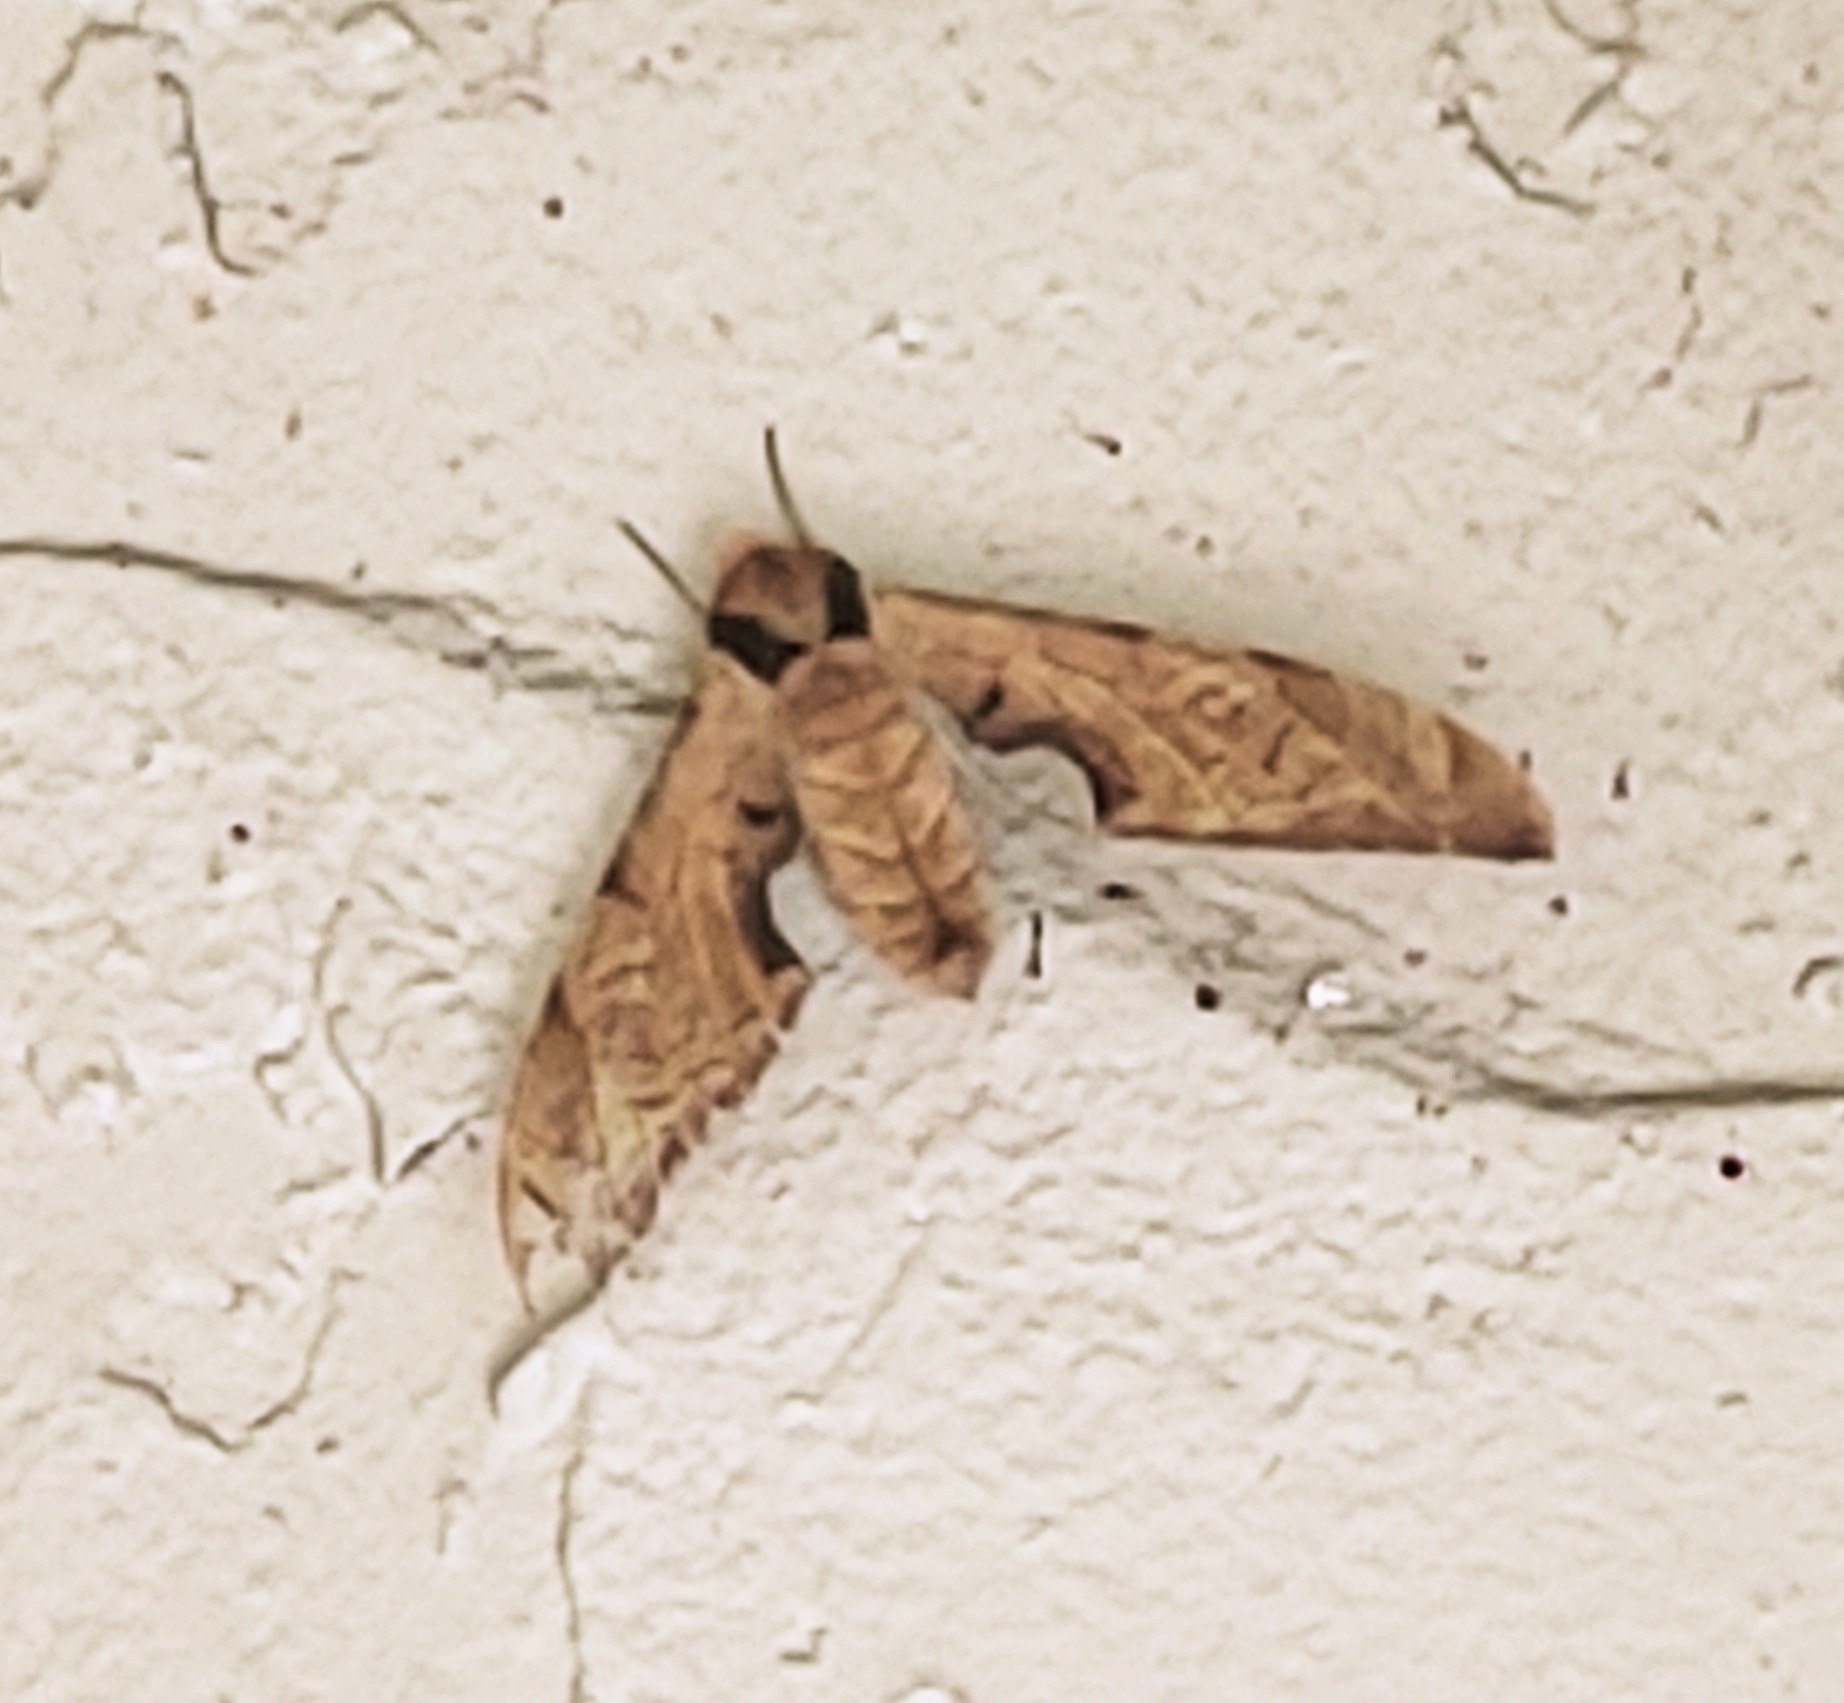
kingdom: Animalia
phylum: Arthropoda
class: Insecta
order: Lepidoptera
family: Sphingidae
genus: Protambulyx
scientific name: Protambulyx strigilis
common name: Streaked sphinx
